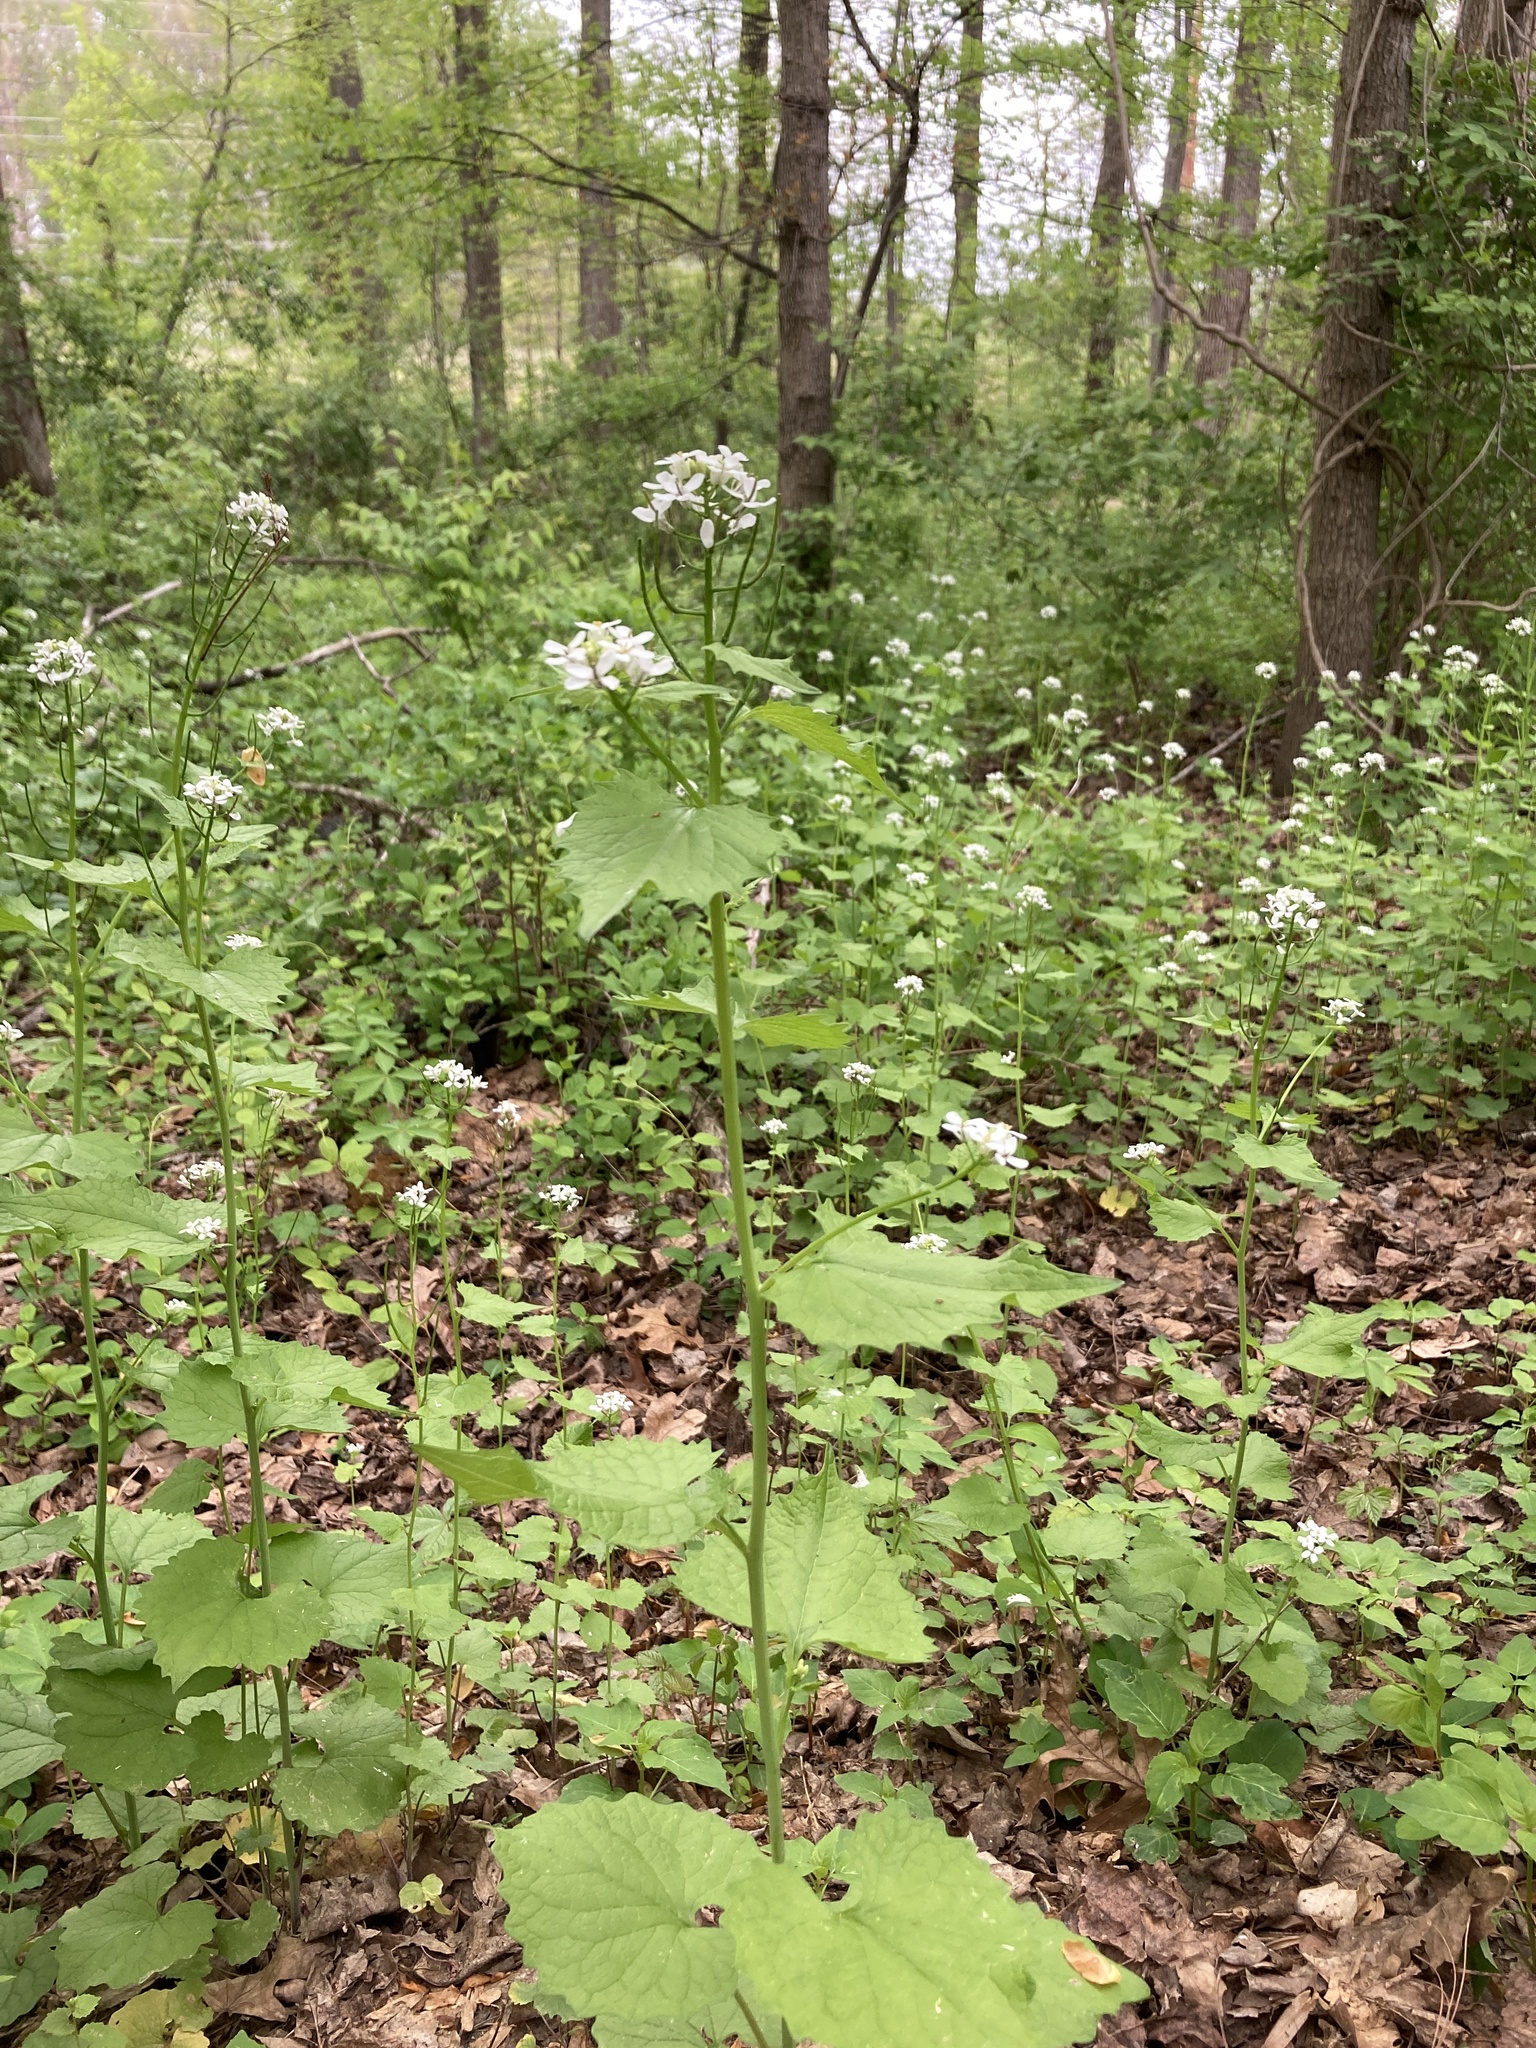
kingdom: Plantae
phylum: Tracheophyta
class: Magnoliopsida
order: Brassicales
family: Brassicaceae
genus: Alliaria
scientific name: Alliaria petiolata
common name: Garlic mustard
